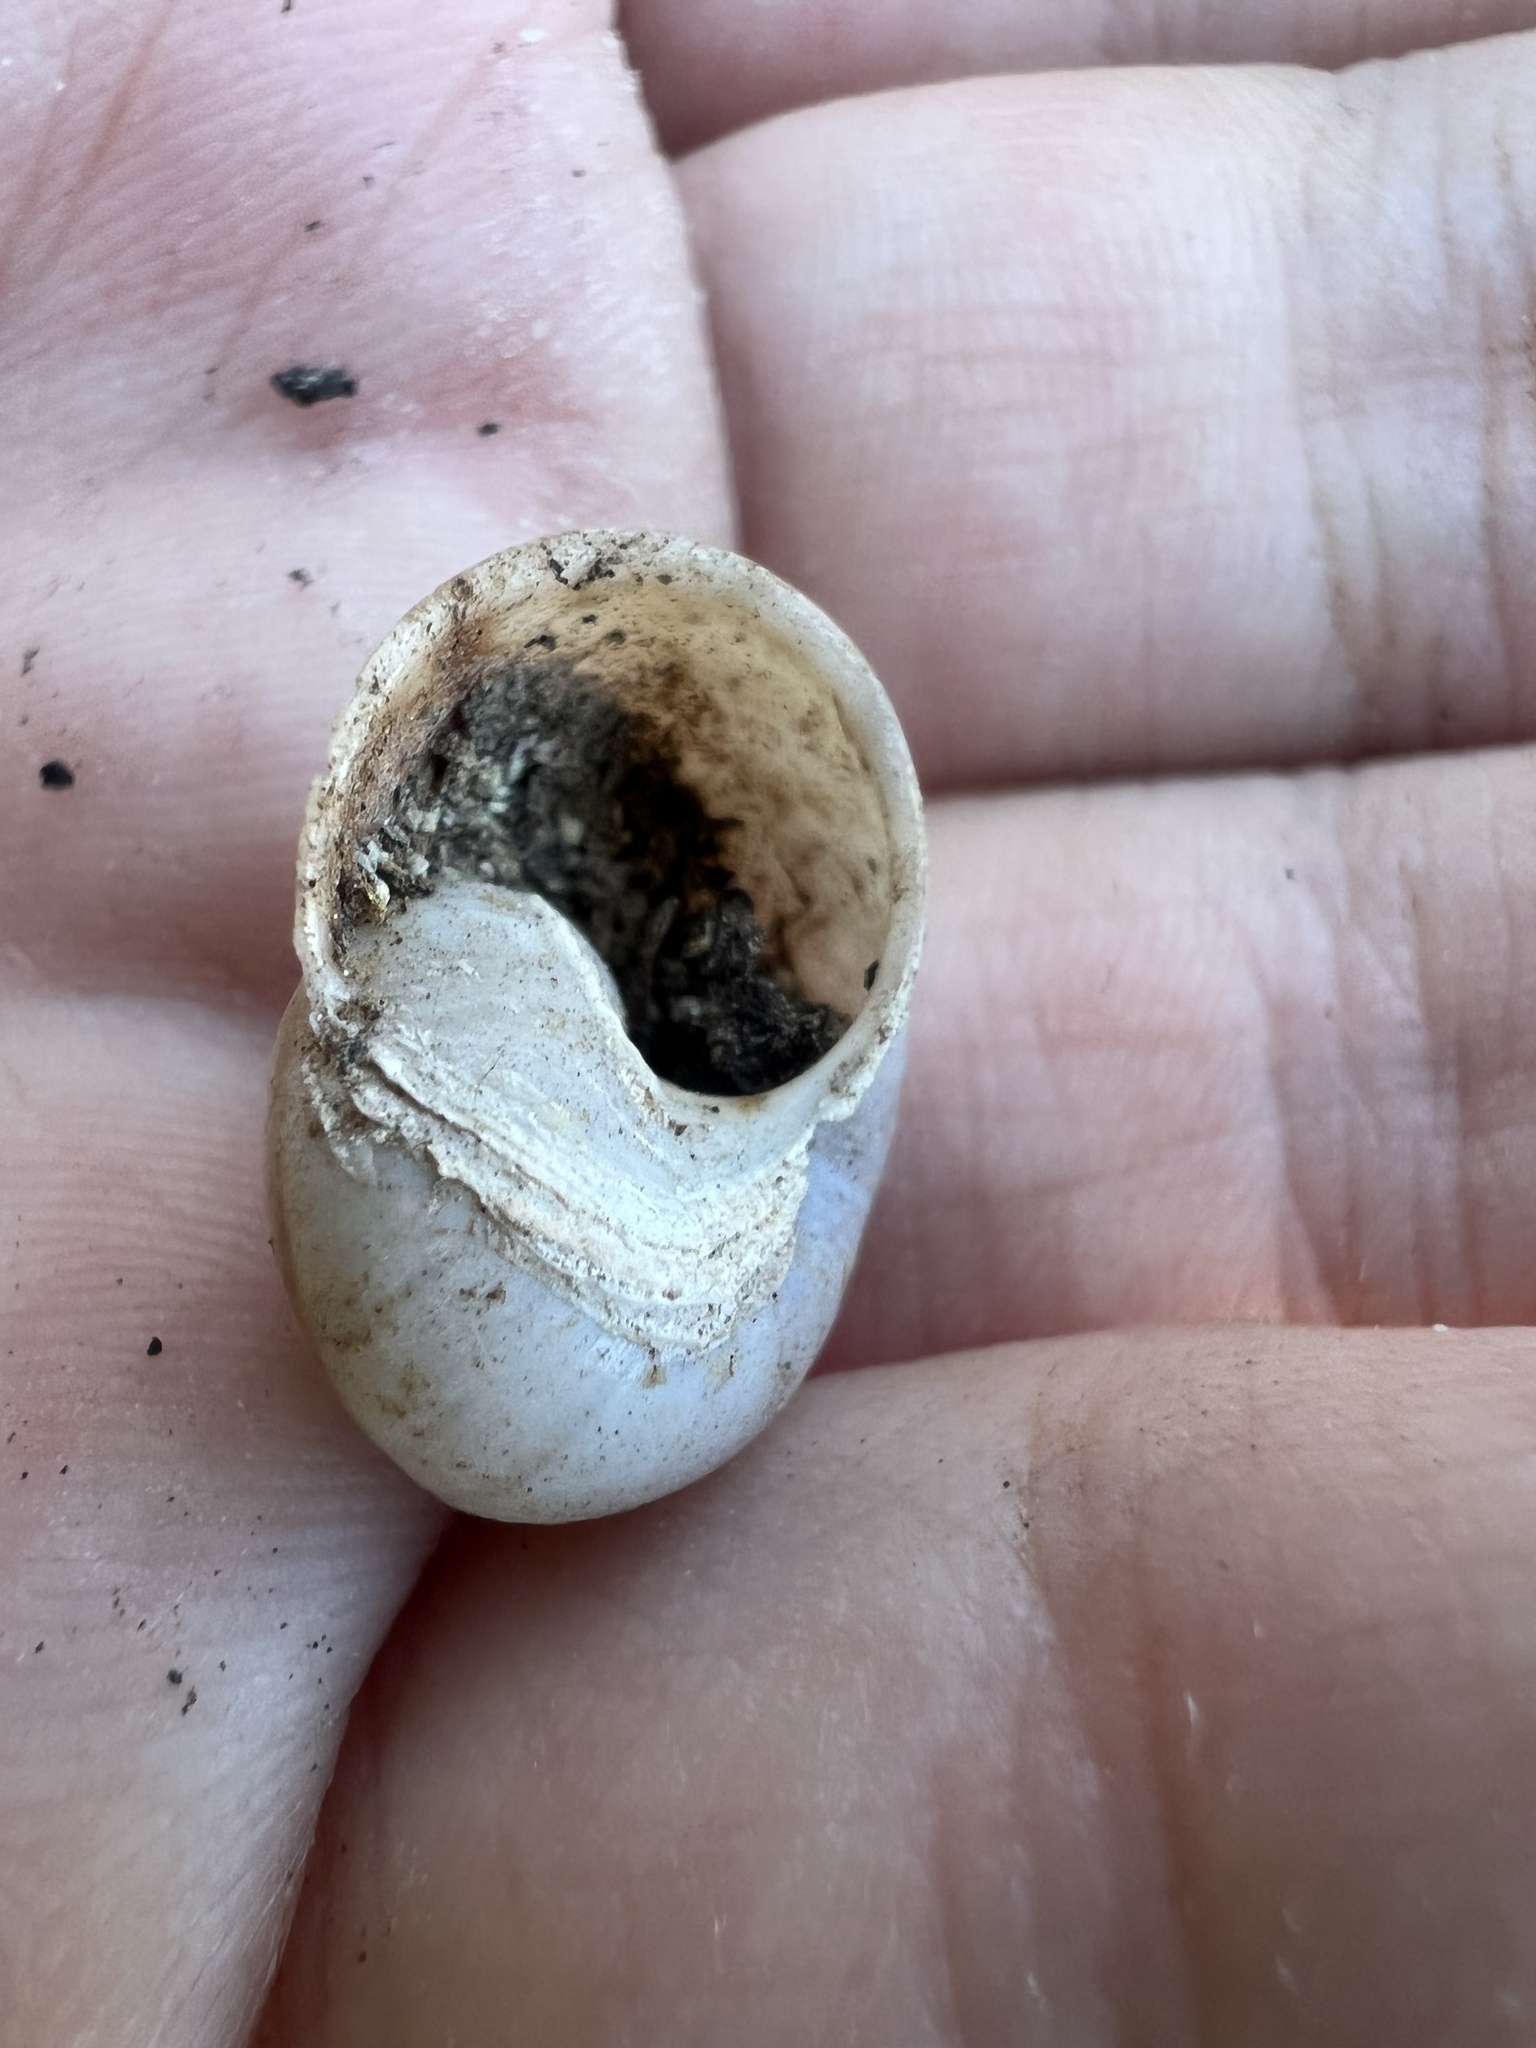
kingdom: Animalia
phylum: Mollusca
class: Gastropoda
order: Stylommatophora
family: Xanthonychidae
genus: Eremarionta
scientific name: Eremarionta rowelli
